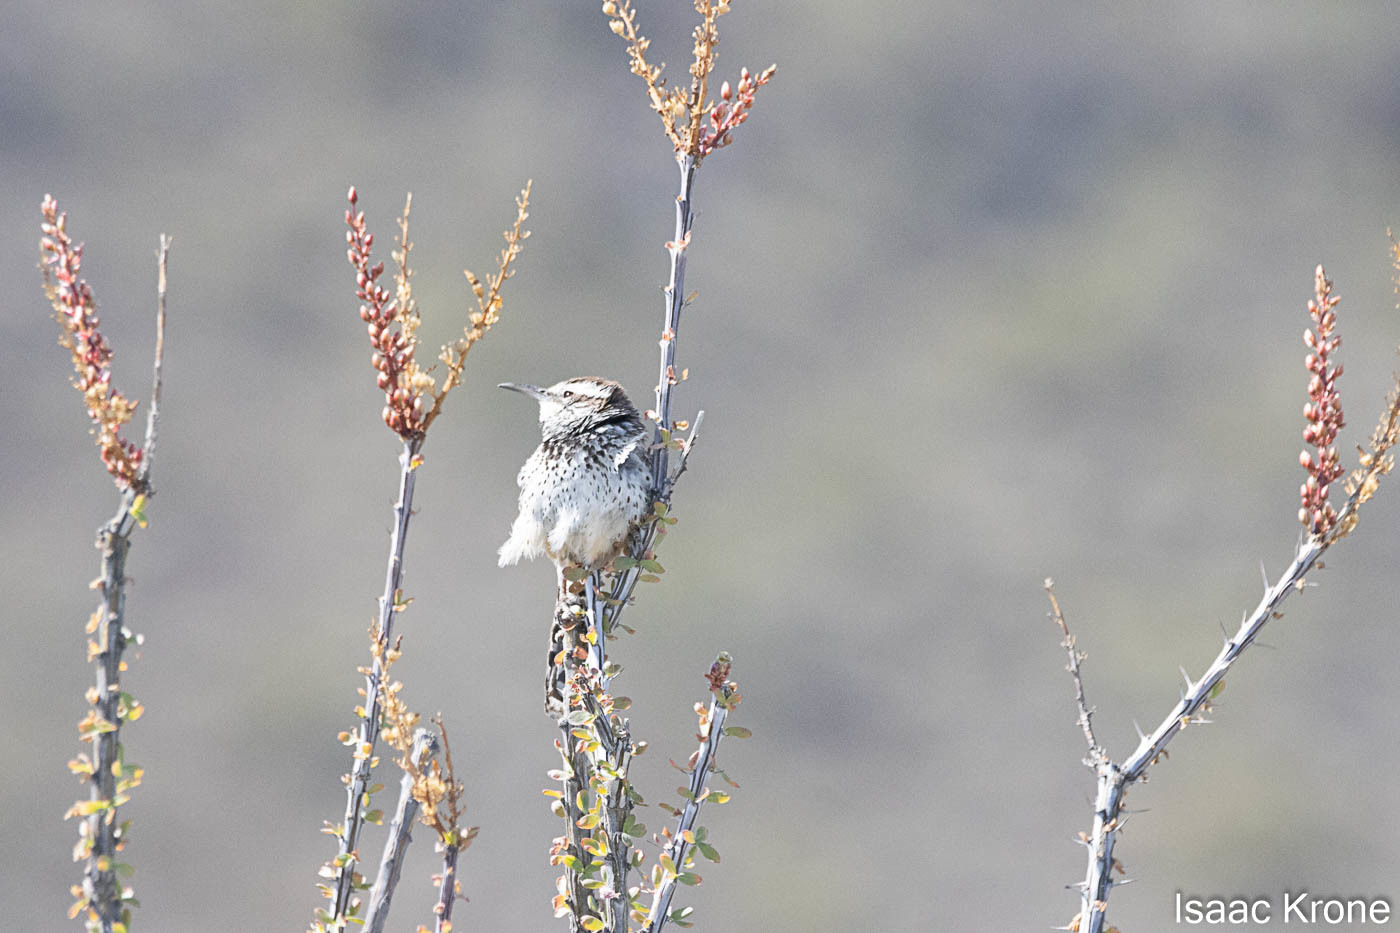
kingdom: Animalia
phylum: Chordata
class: Aves
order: Passeriformes
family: Troglodytidae
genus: Campylorhynchus
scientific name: Campylorhynchus brunneicapillus
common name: Cactus wren
